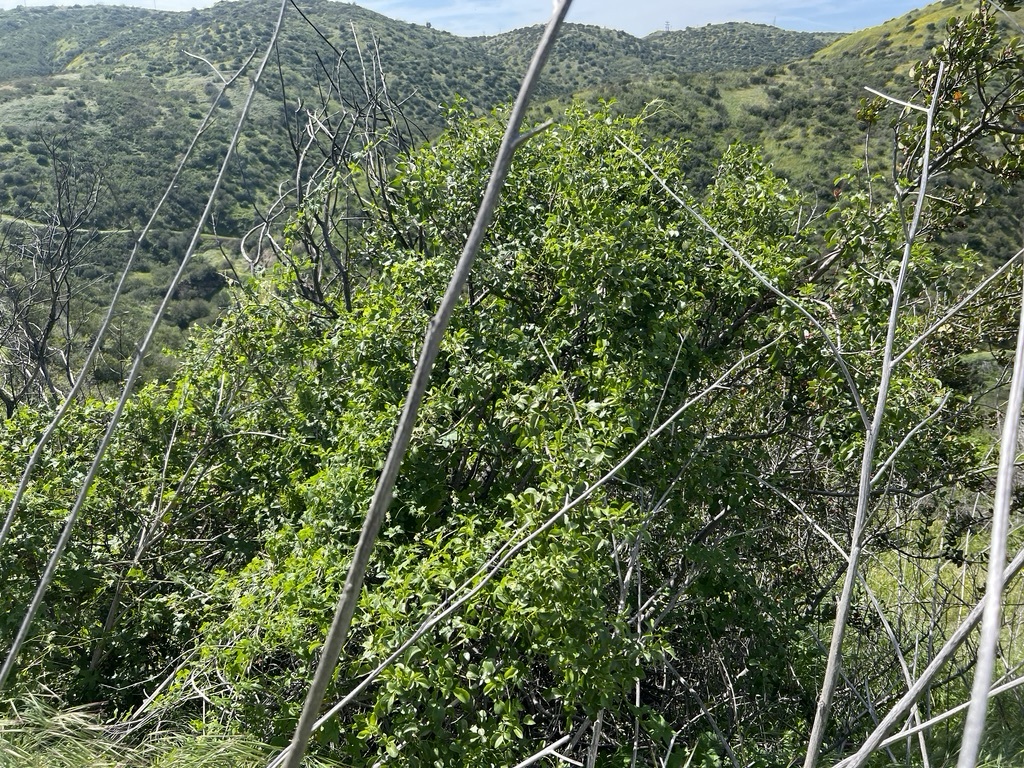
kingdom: Plantae
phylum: Tracheophyta
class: Magnoliopsida
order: Dipsacales
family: Viburnaceae
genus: Sambucus
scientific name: Sambucus cerulea
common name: Blue elder
